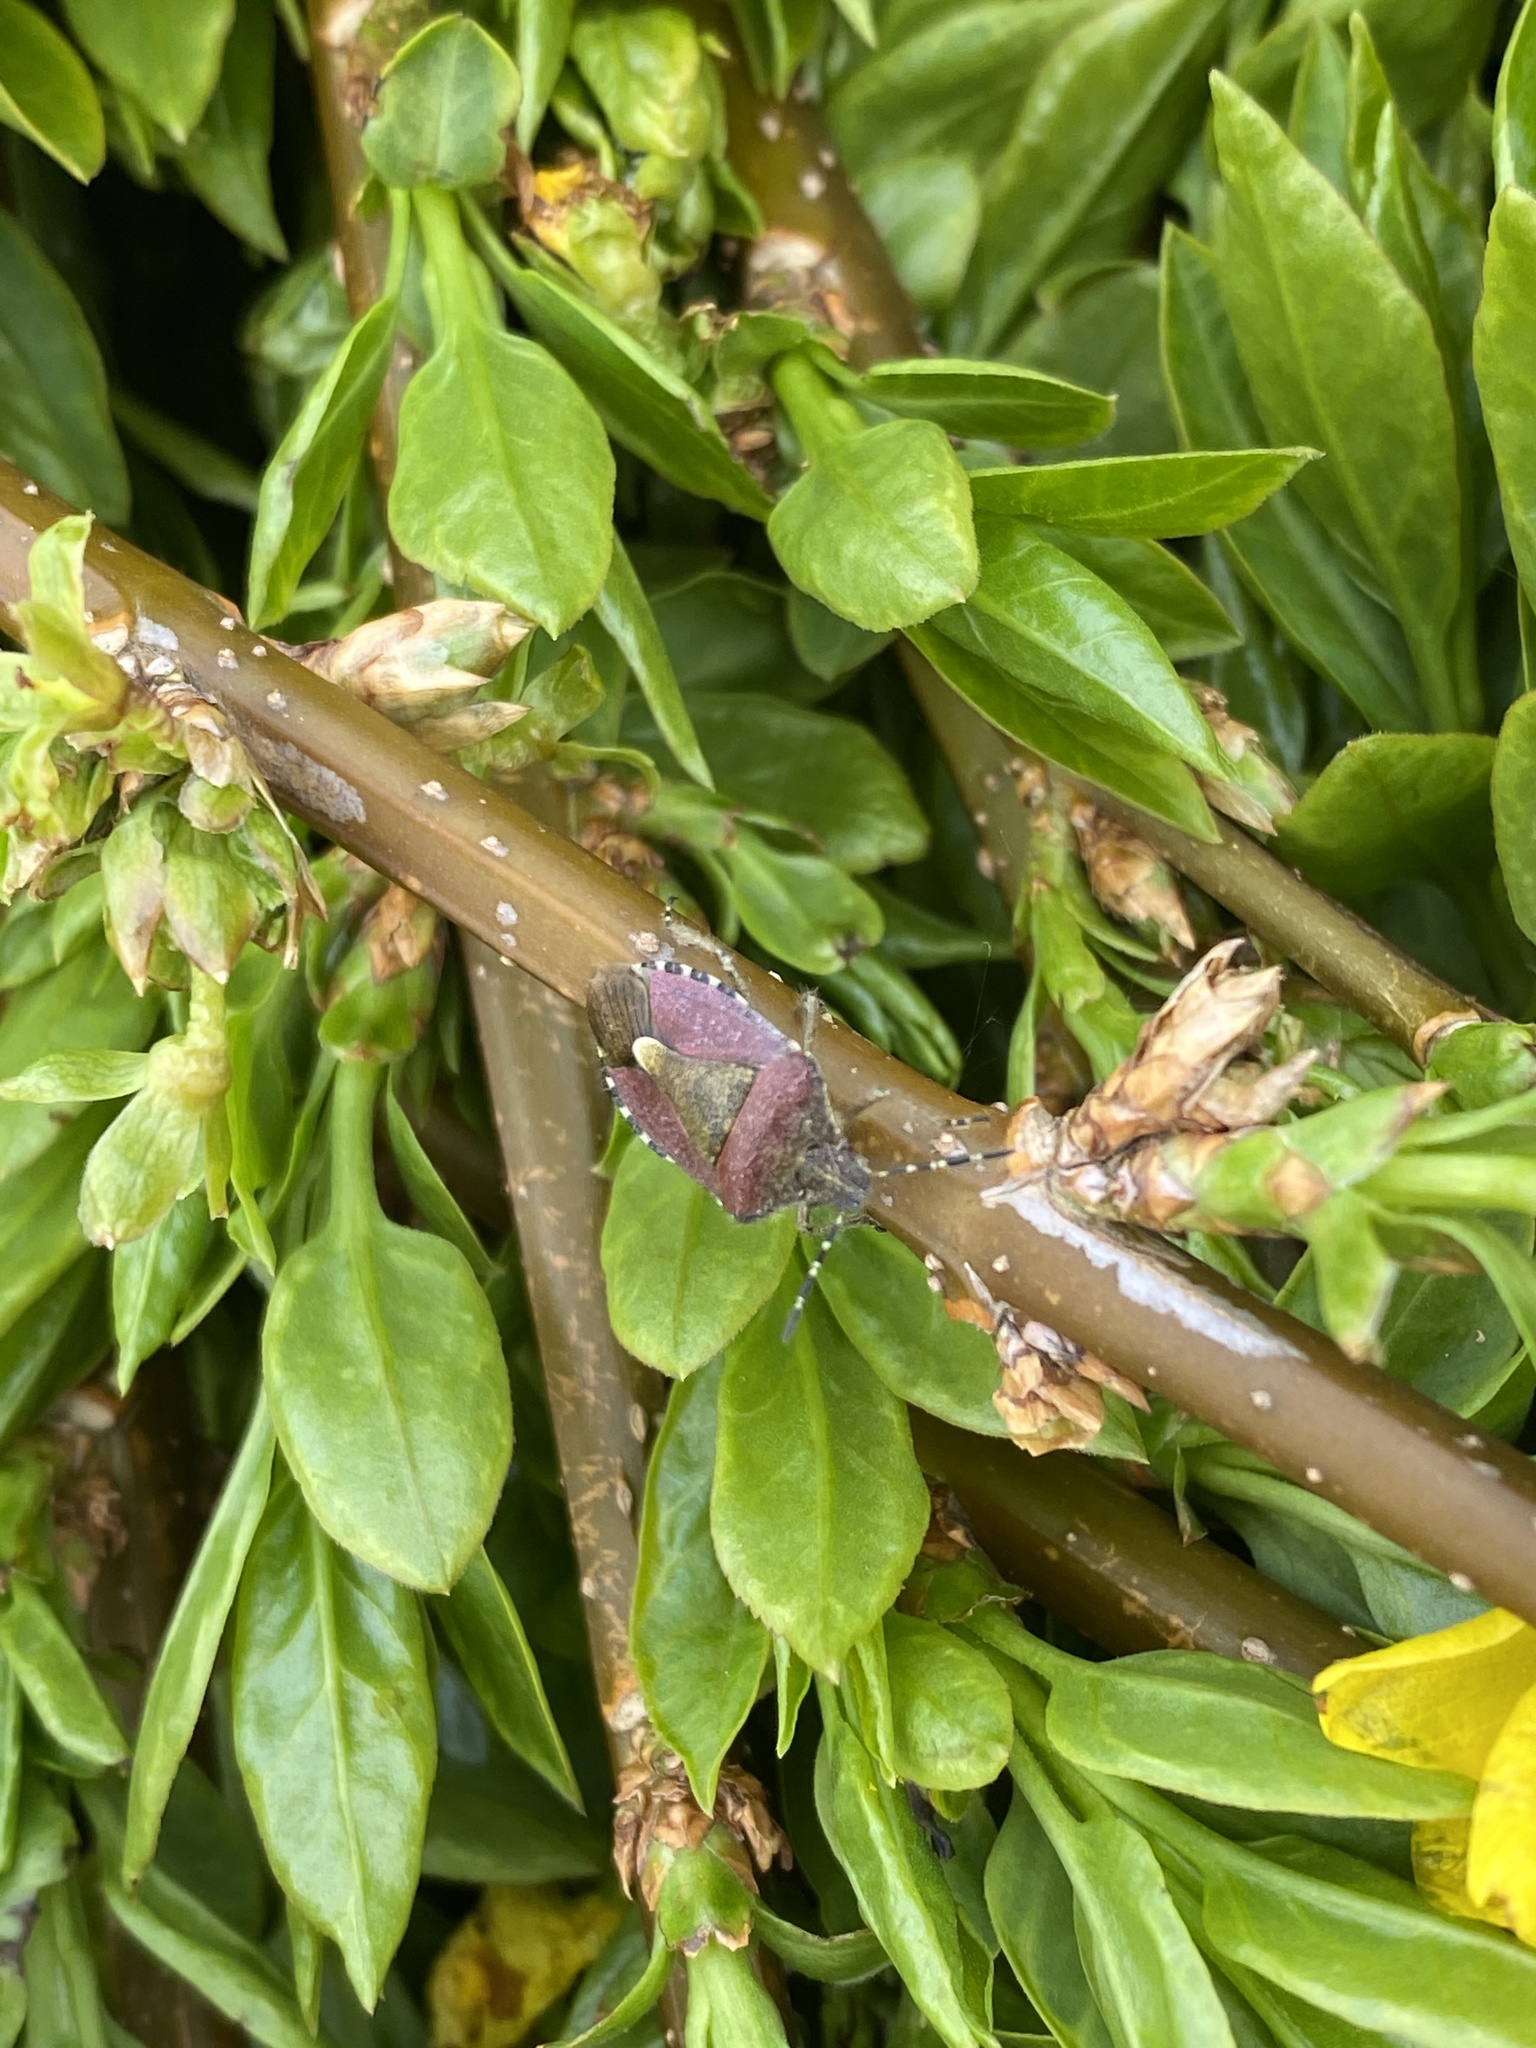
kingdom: Animalia
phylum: Arthropoda
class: Insecta
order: Hemiptera
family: Pentatomidae
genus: Dolycoris
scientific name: Dolycoris baccarum
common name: Sloe bug
